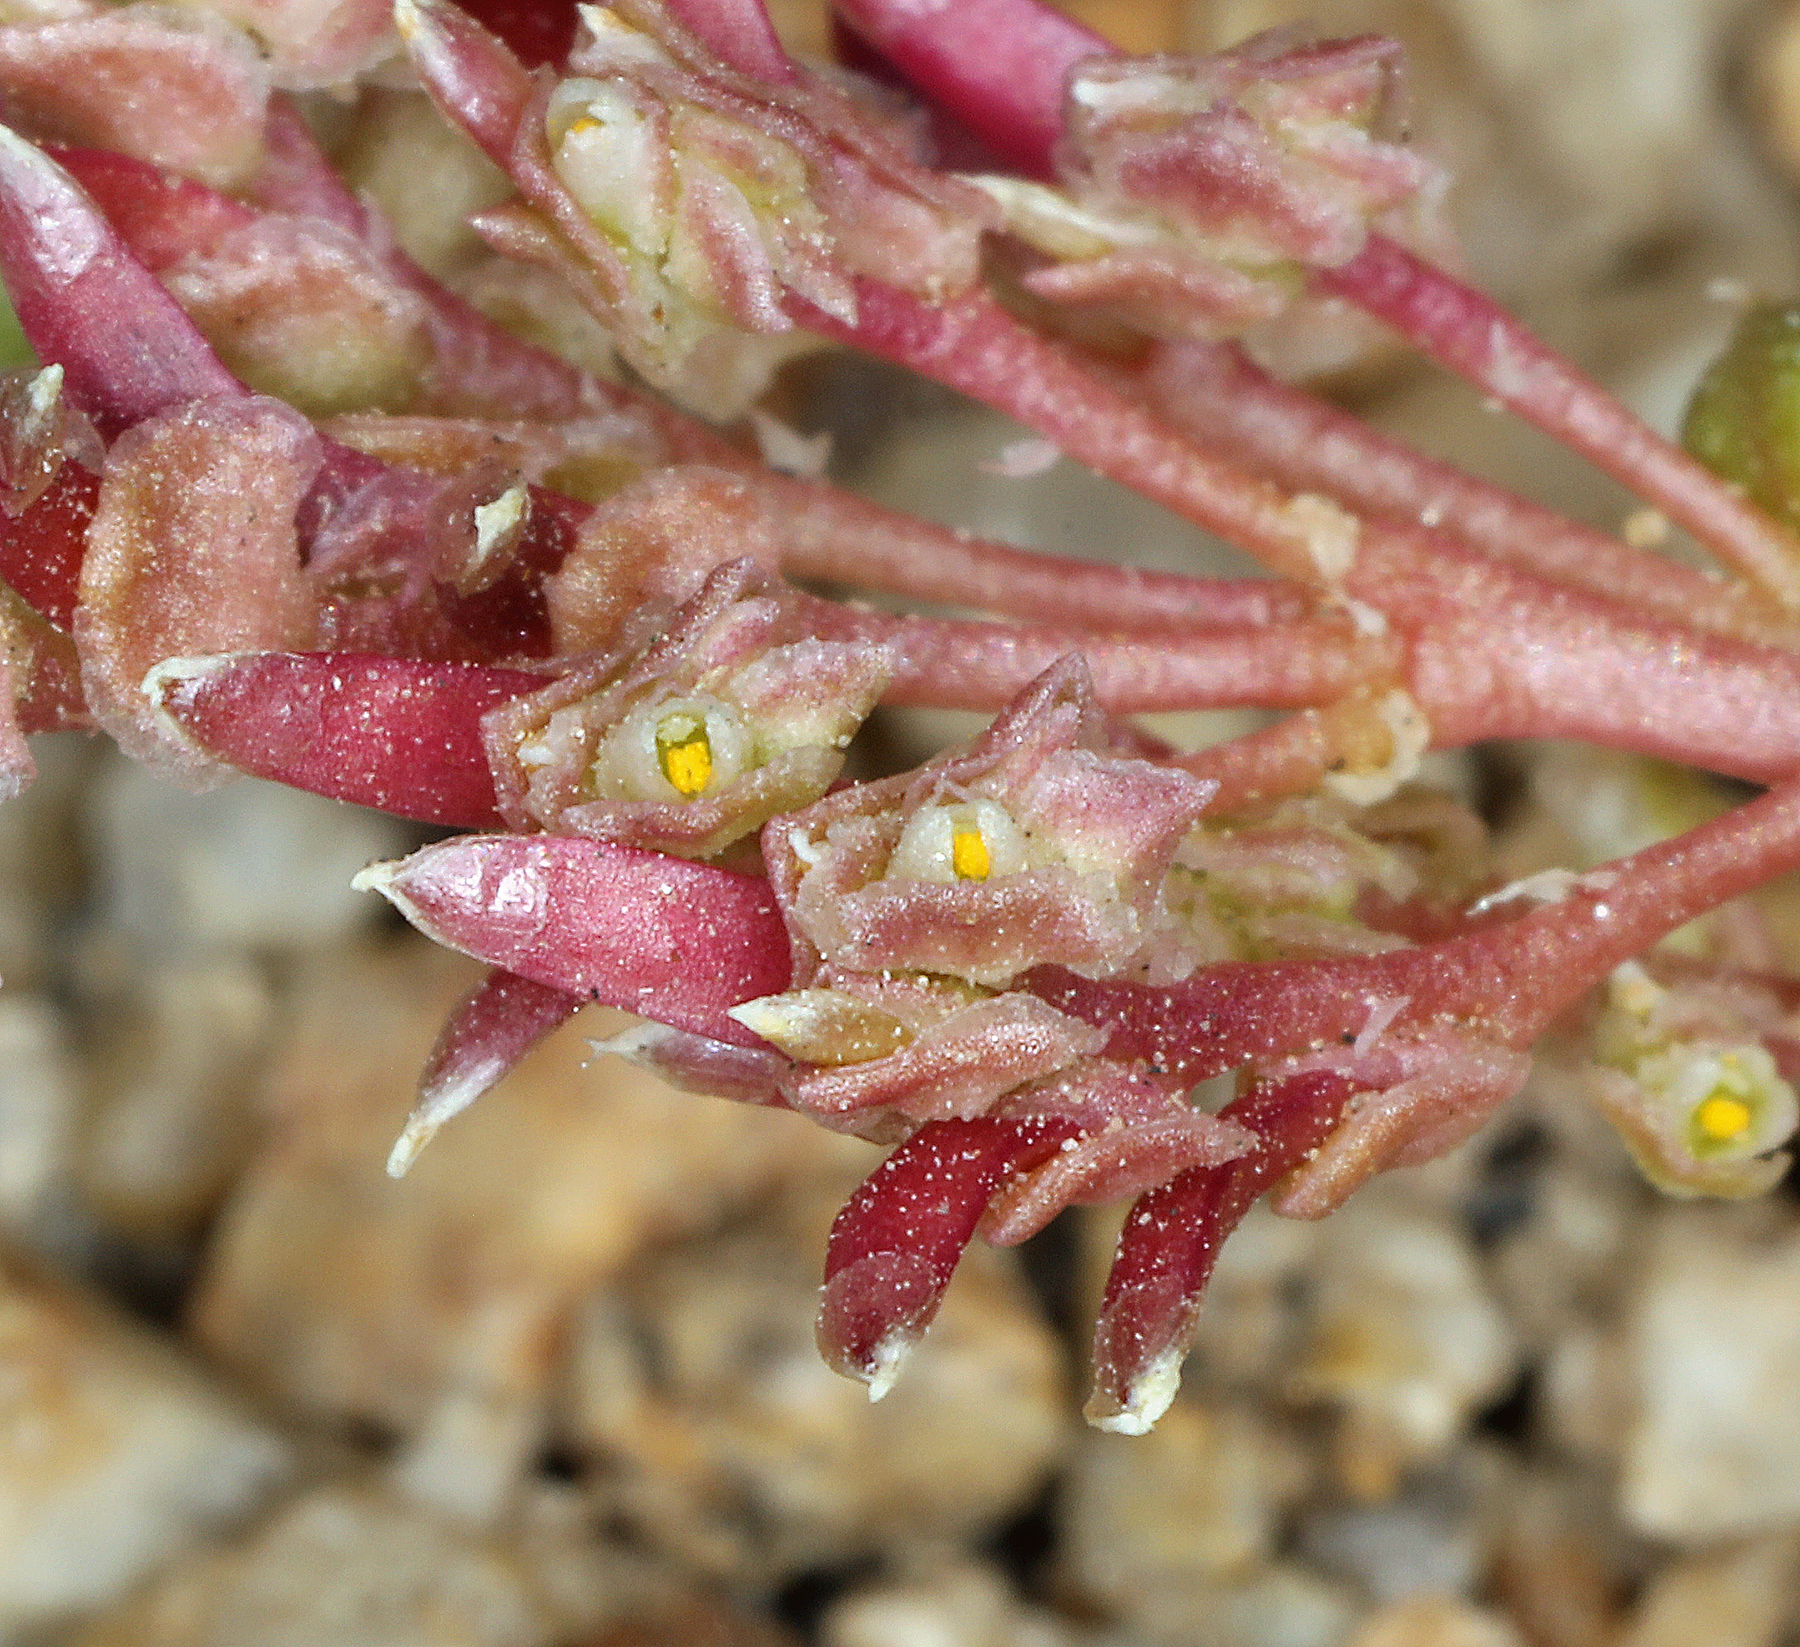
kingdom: Plantae
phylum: Tracheophyta
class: Magnoliopsida
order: Caryophyllales
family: Montiaceae
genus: Calyptridium
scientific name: Calyptridium monandrum
